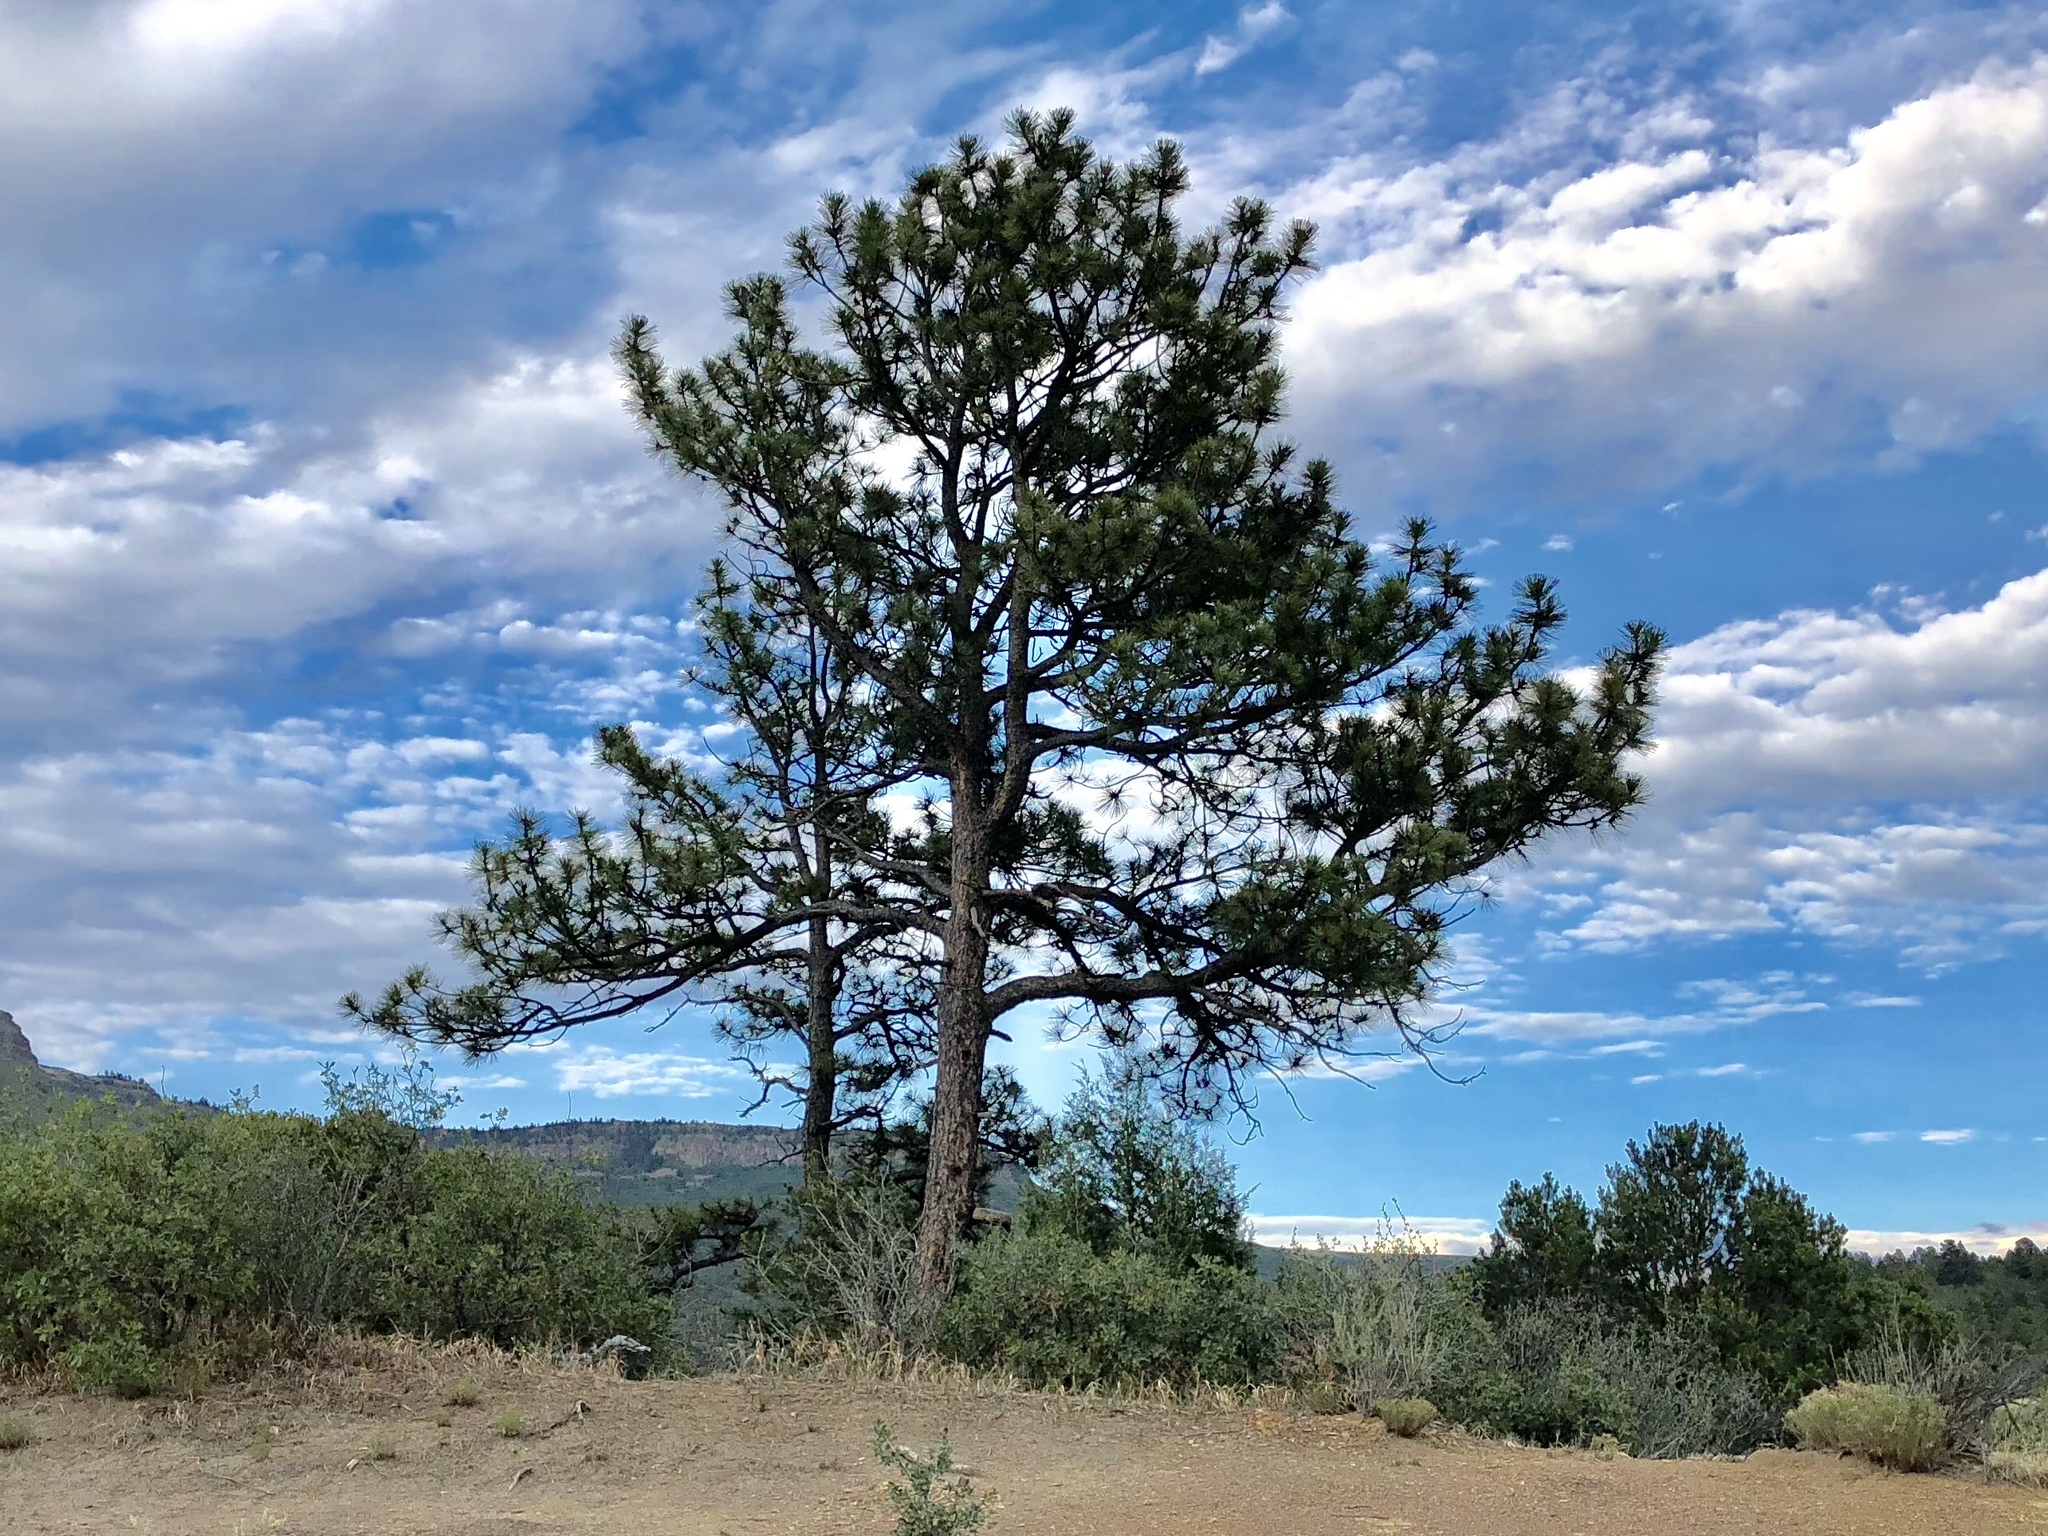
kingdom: Plantae
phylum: Tracheophyta
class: Pinopsida
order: Pinales
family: Pinaceae
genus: Pinus
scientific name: Pinus ponderosa
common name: Western yellow-pine
